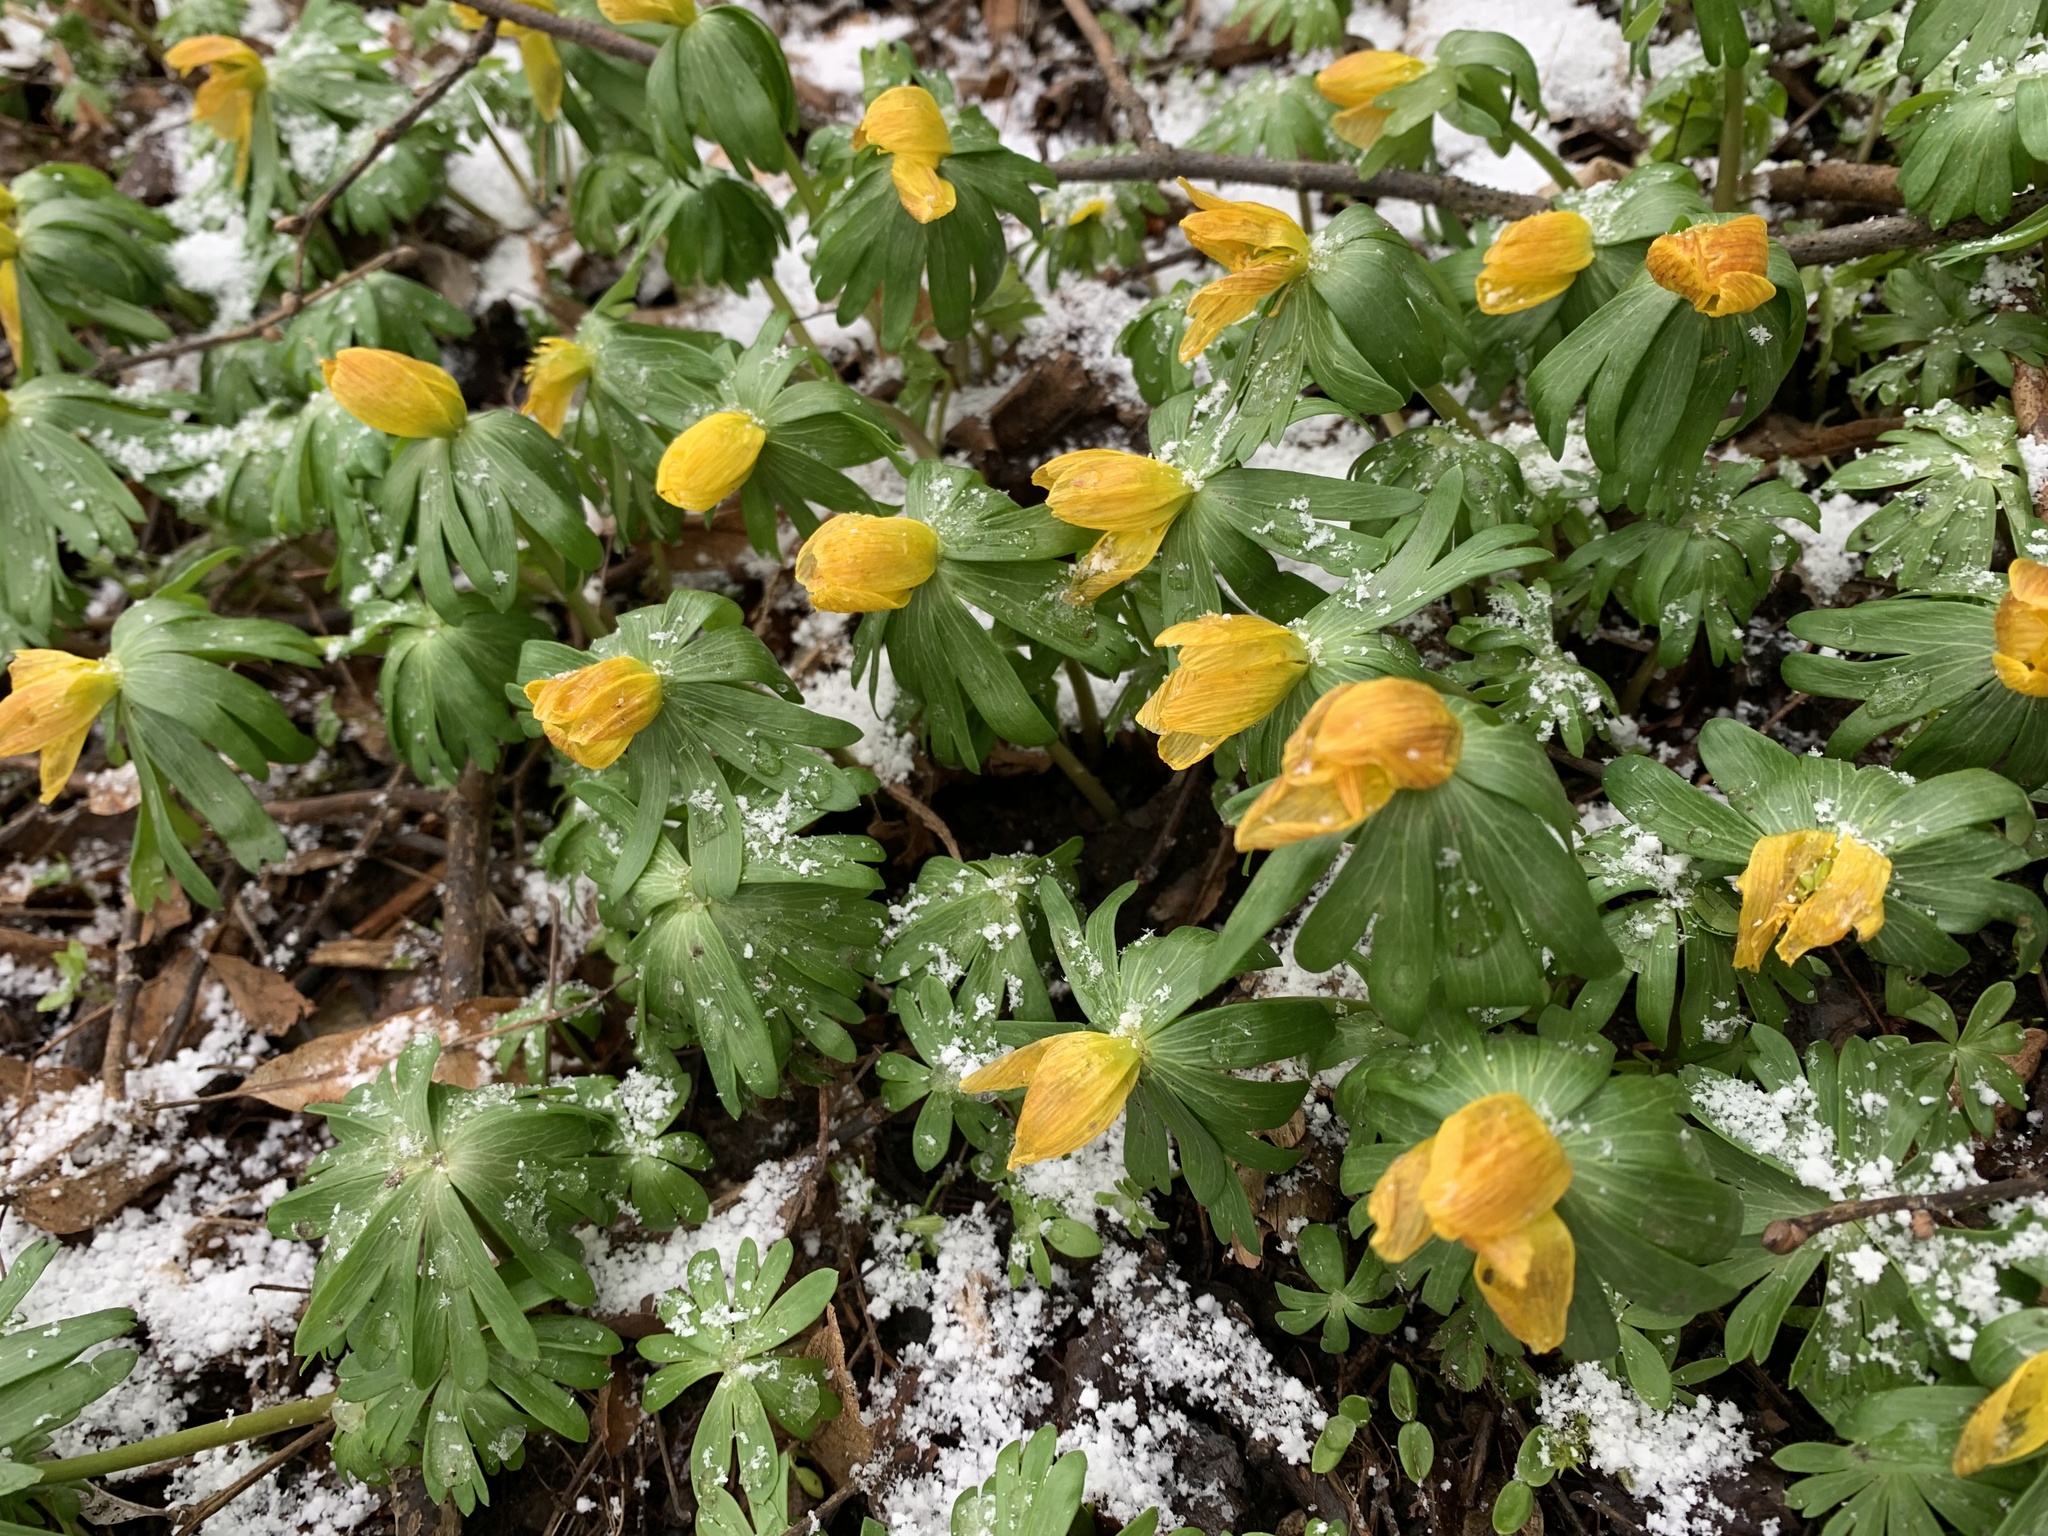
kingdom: Plantae
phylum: Tracheophyta
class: Magnoliopsida
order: Ranunculales
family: Ranunculaceae
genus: Eranthis
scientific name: Eranthis hyemalis
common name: Winter aconite
